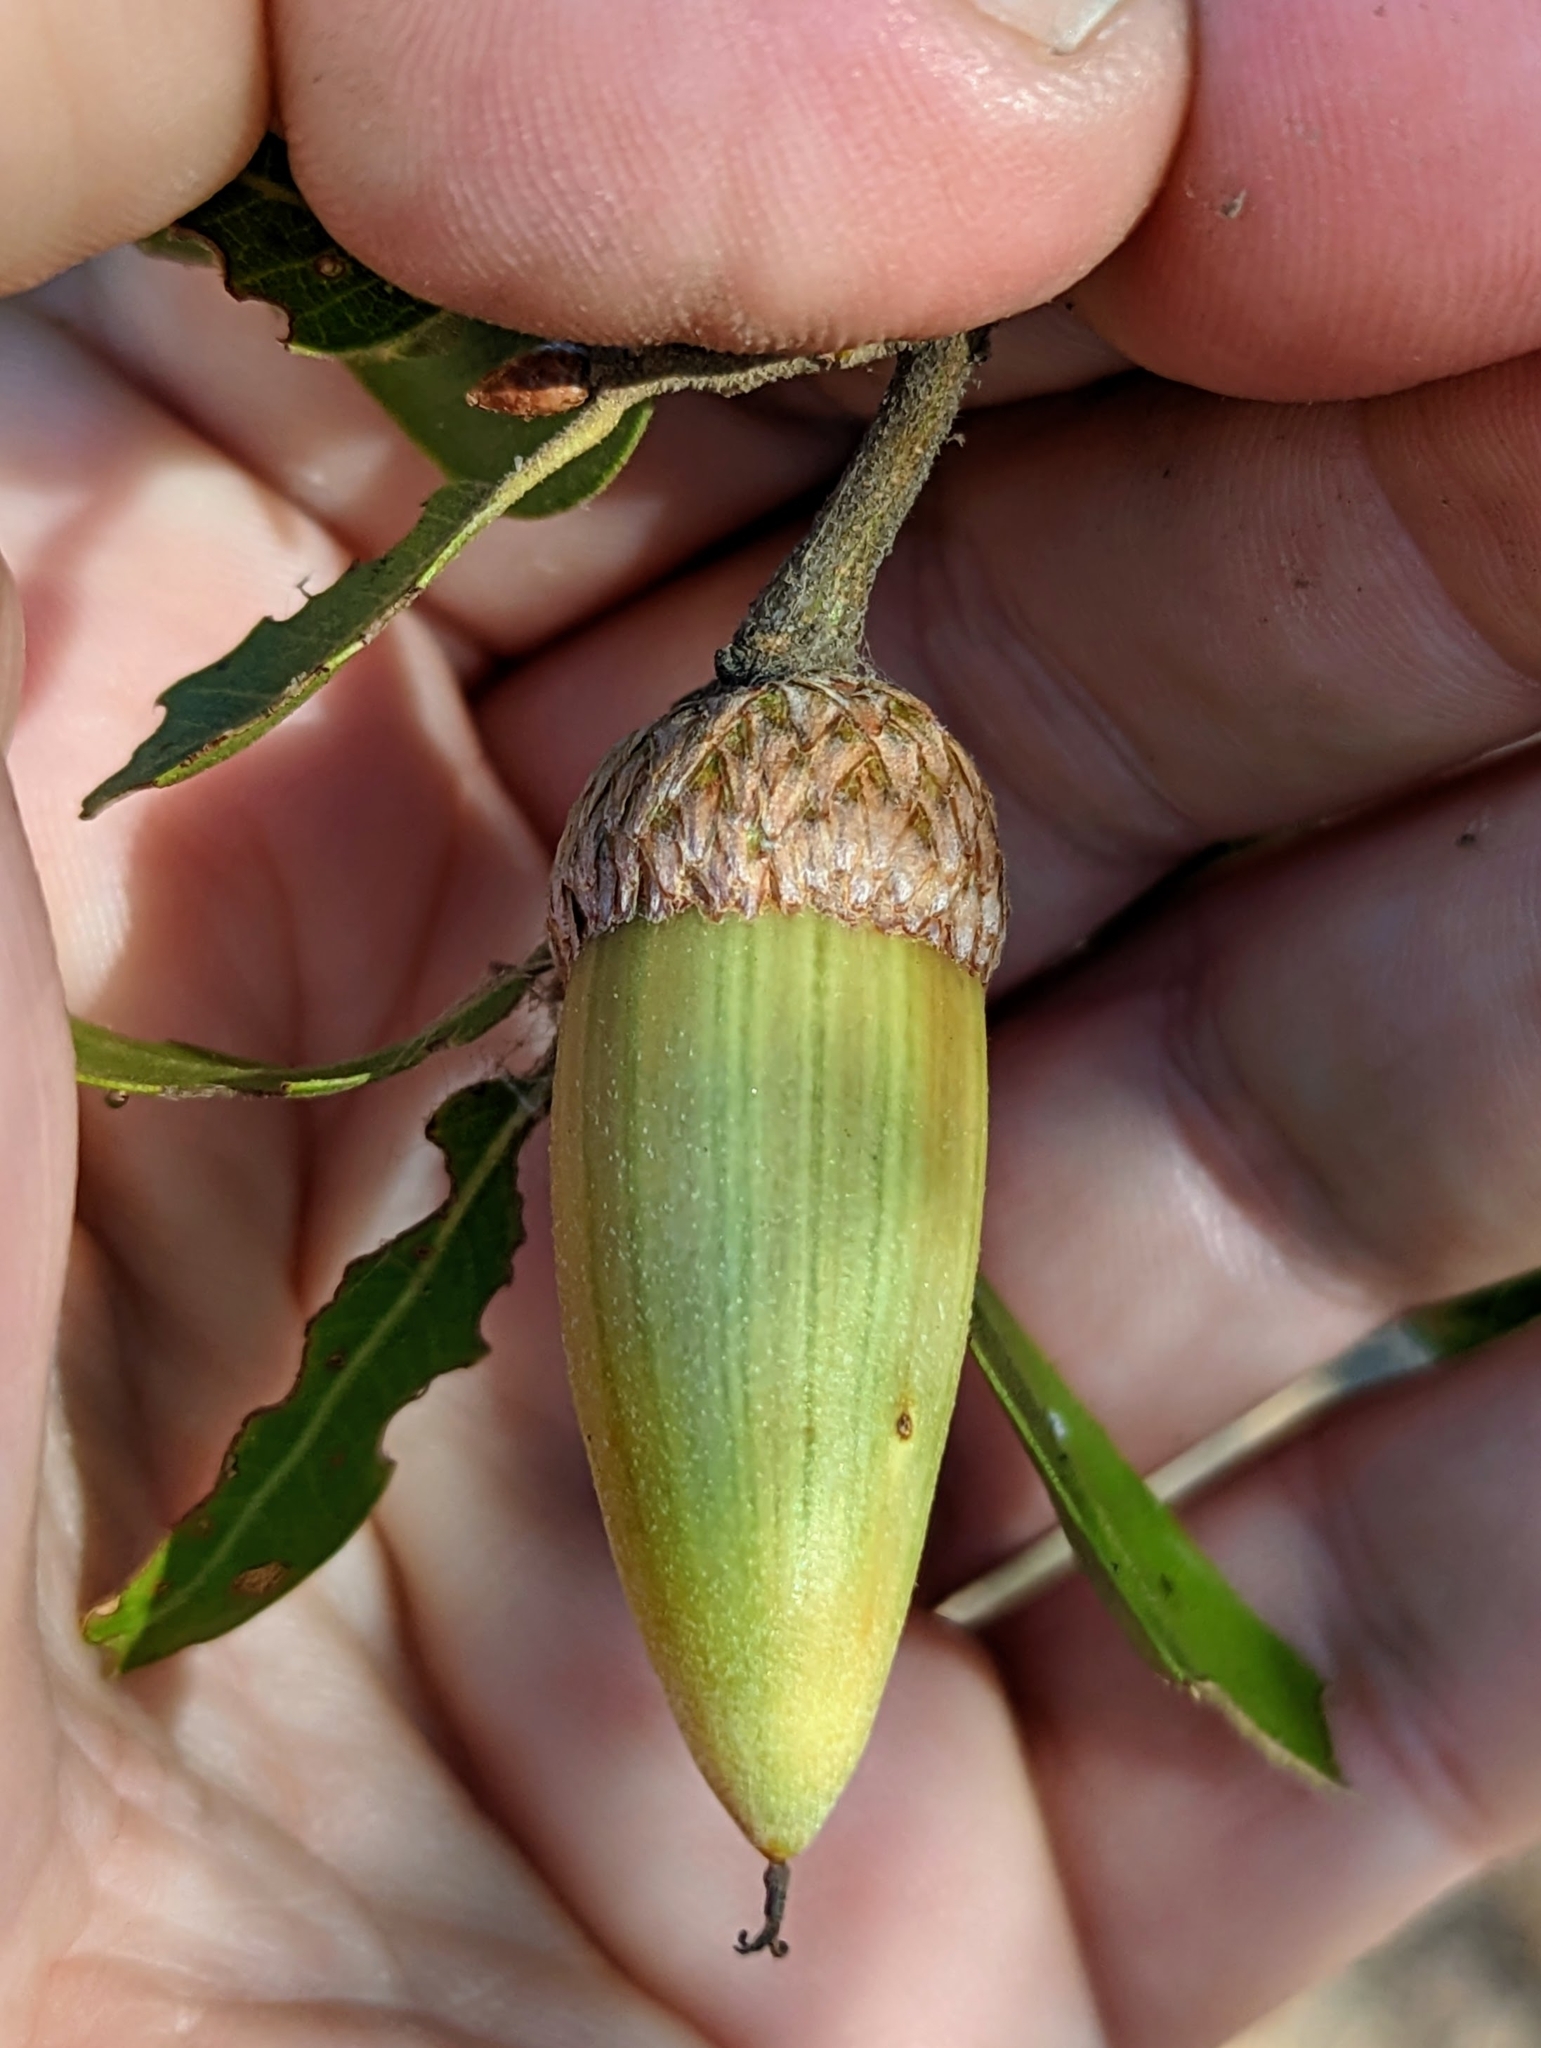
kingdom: Plantae
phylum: Tracheophyta
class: Magnoliopsida
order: Fagales
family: Fagaceae
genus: Quercus
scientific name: Quercus wislizeni
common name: Interior live oak
